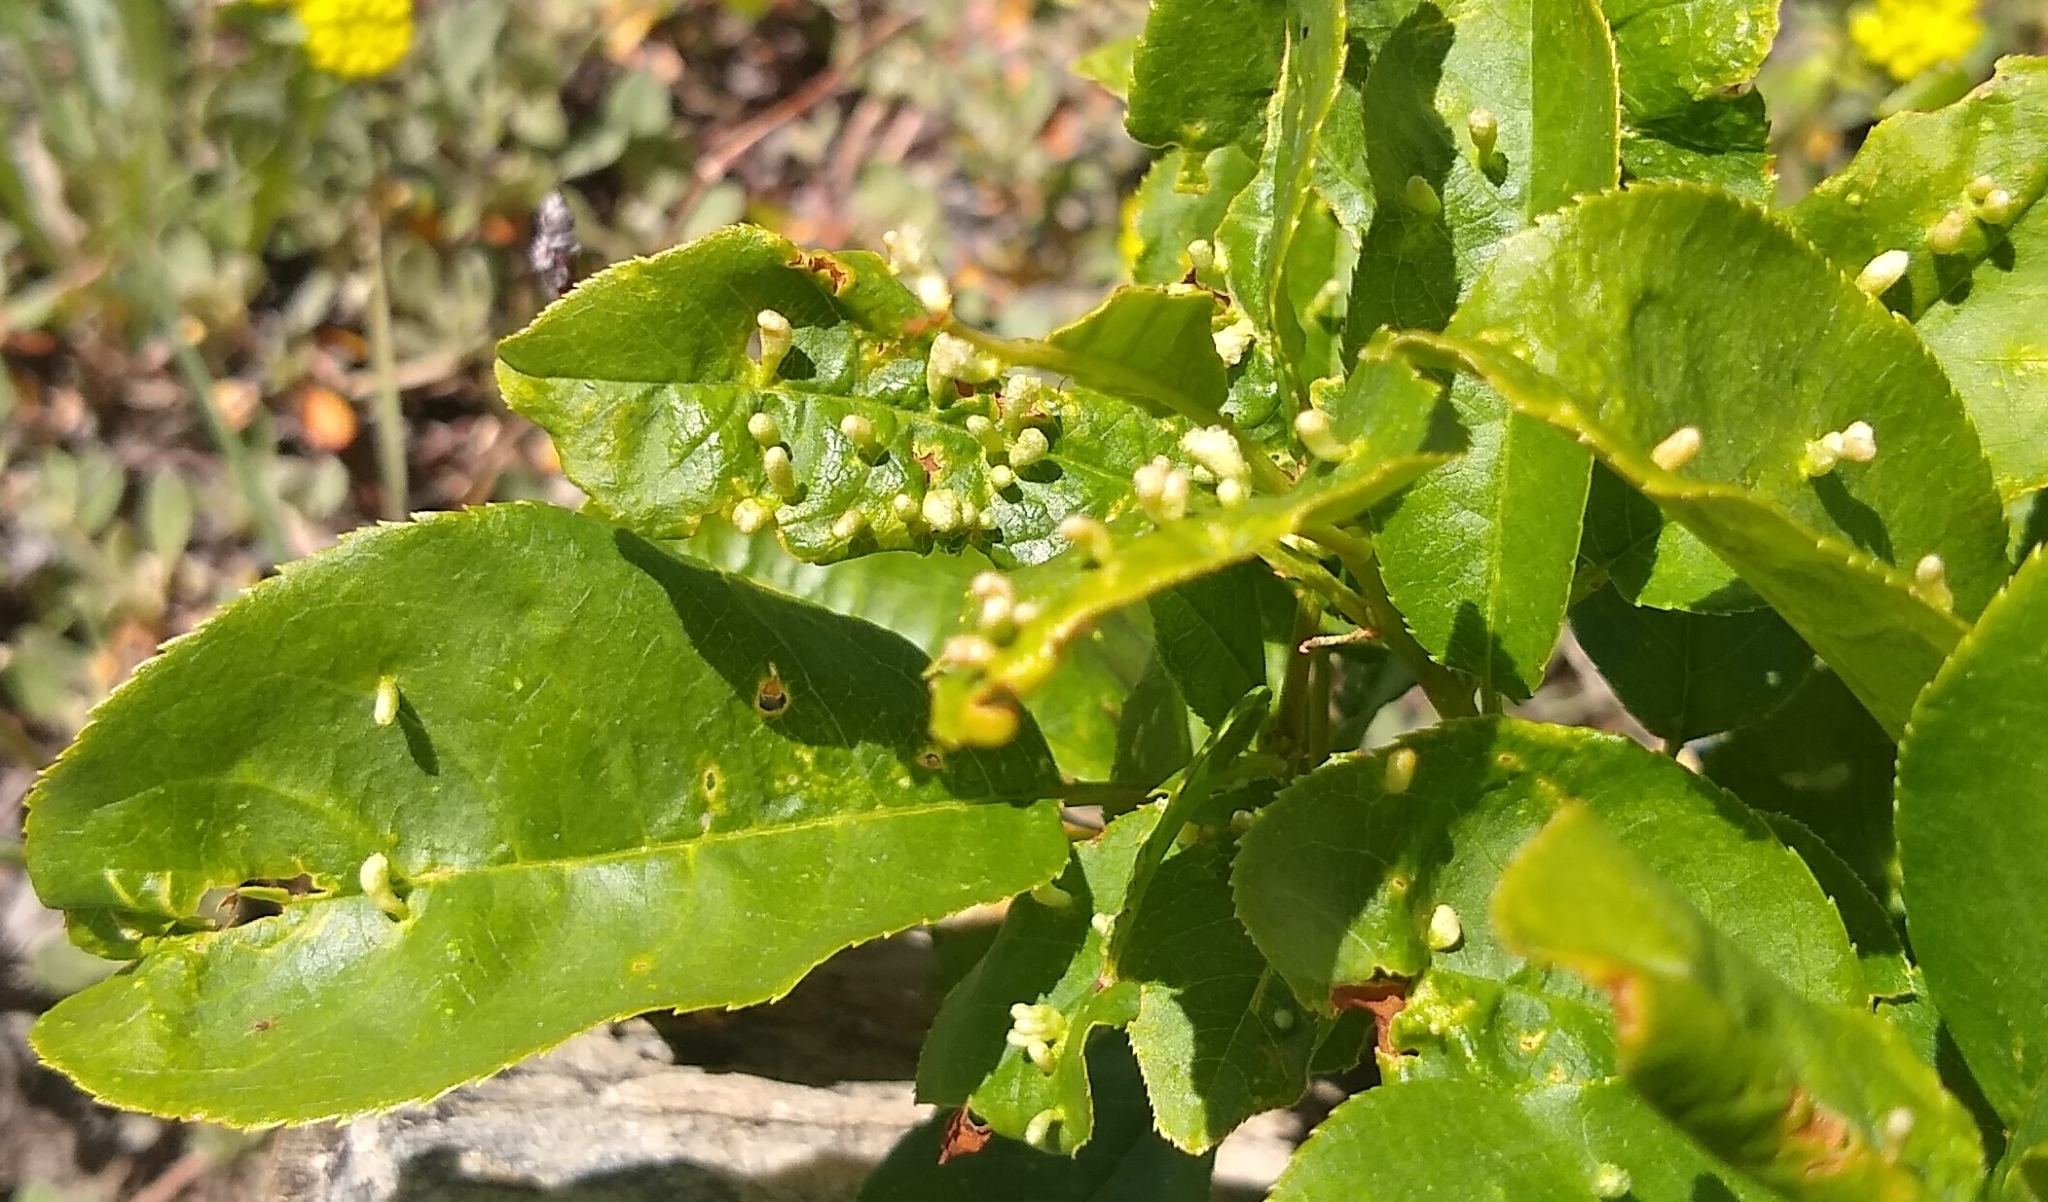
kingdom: Animalia
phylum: Arthropoda
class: Arachnida
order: Trombidiformes
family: Eriophyidae
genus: Eriophyes
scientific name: Eriophyes emarginatae
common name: Plum leaf gall mite
